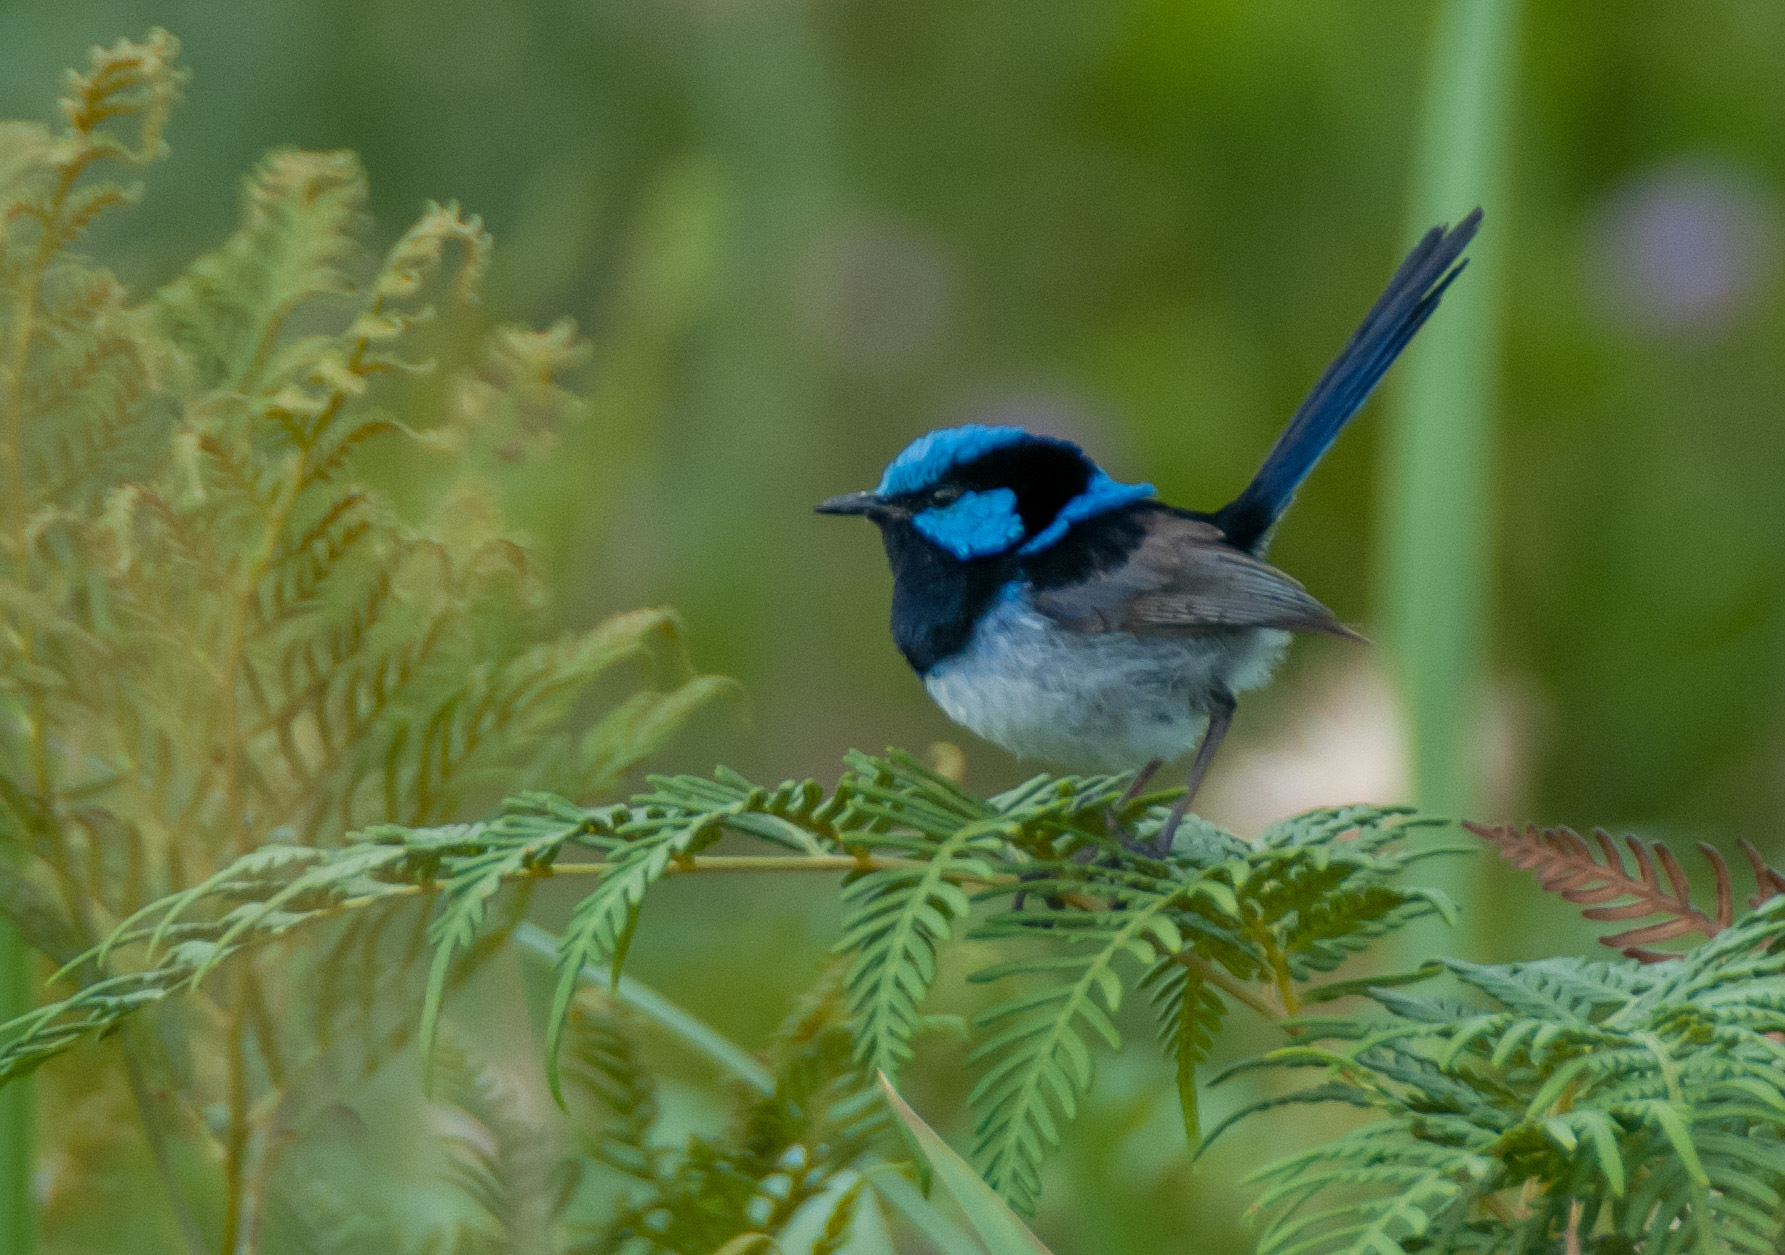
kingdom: Animalia
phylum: Chordata
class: Aves
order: Passeriformes
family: Maluridae
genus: Malurus
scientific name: Malurus cyaneus
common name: Superb fairywren
